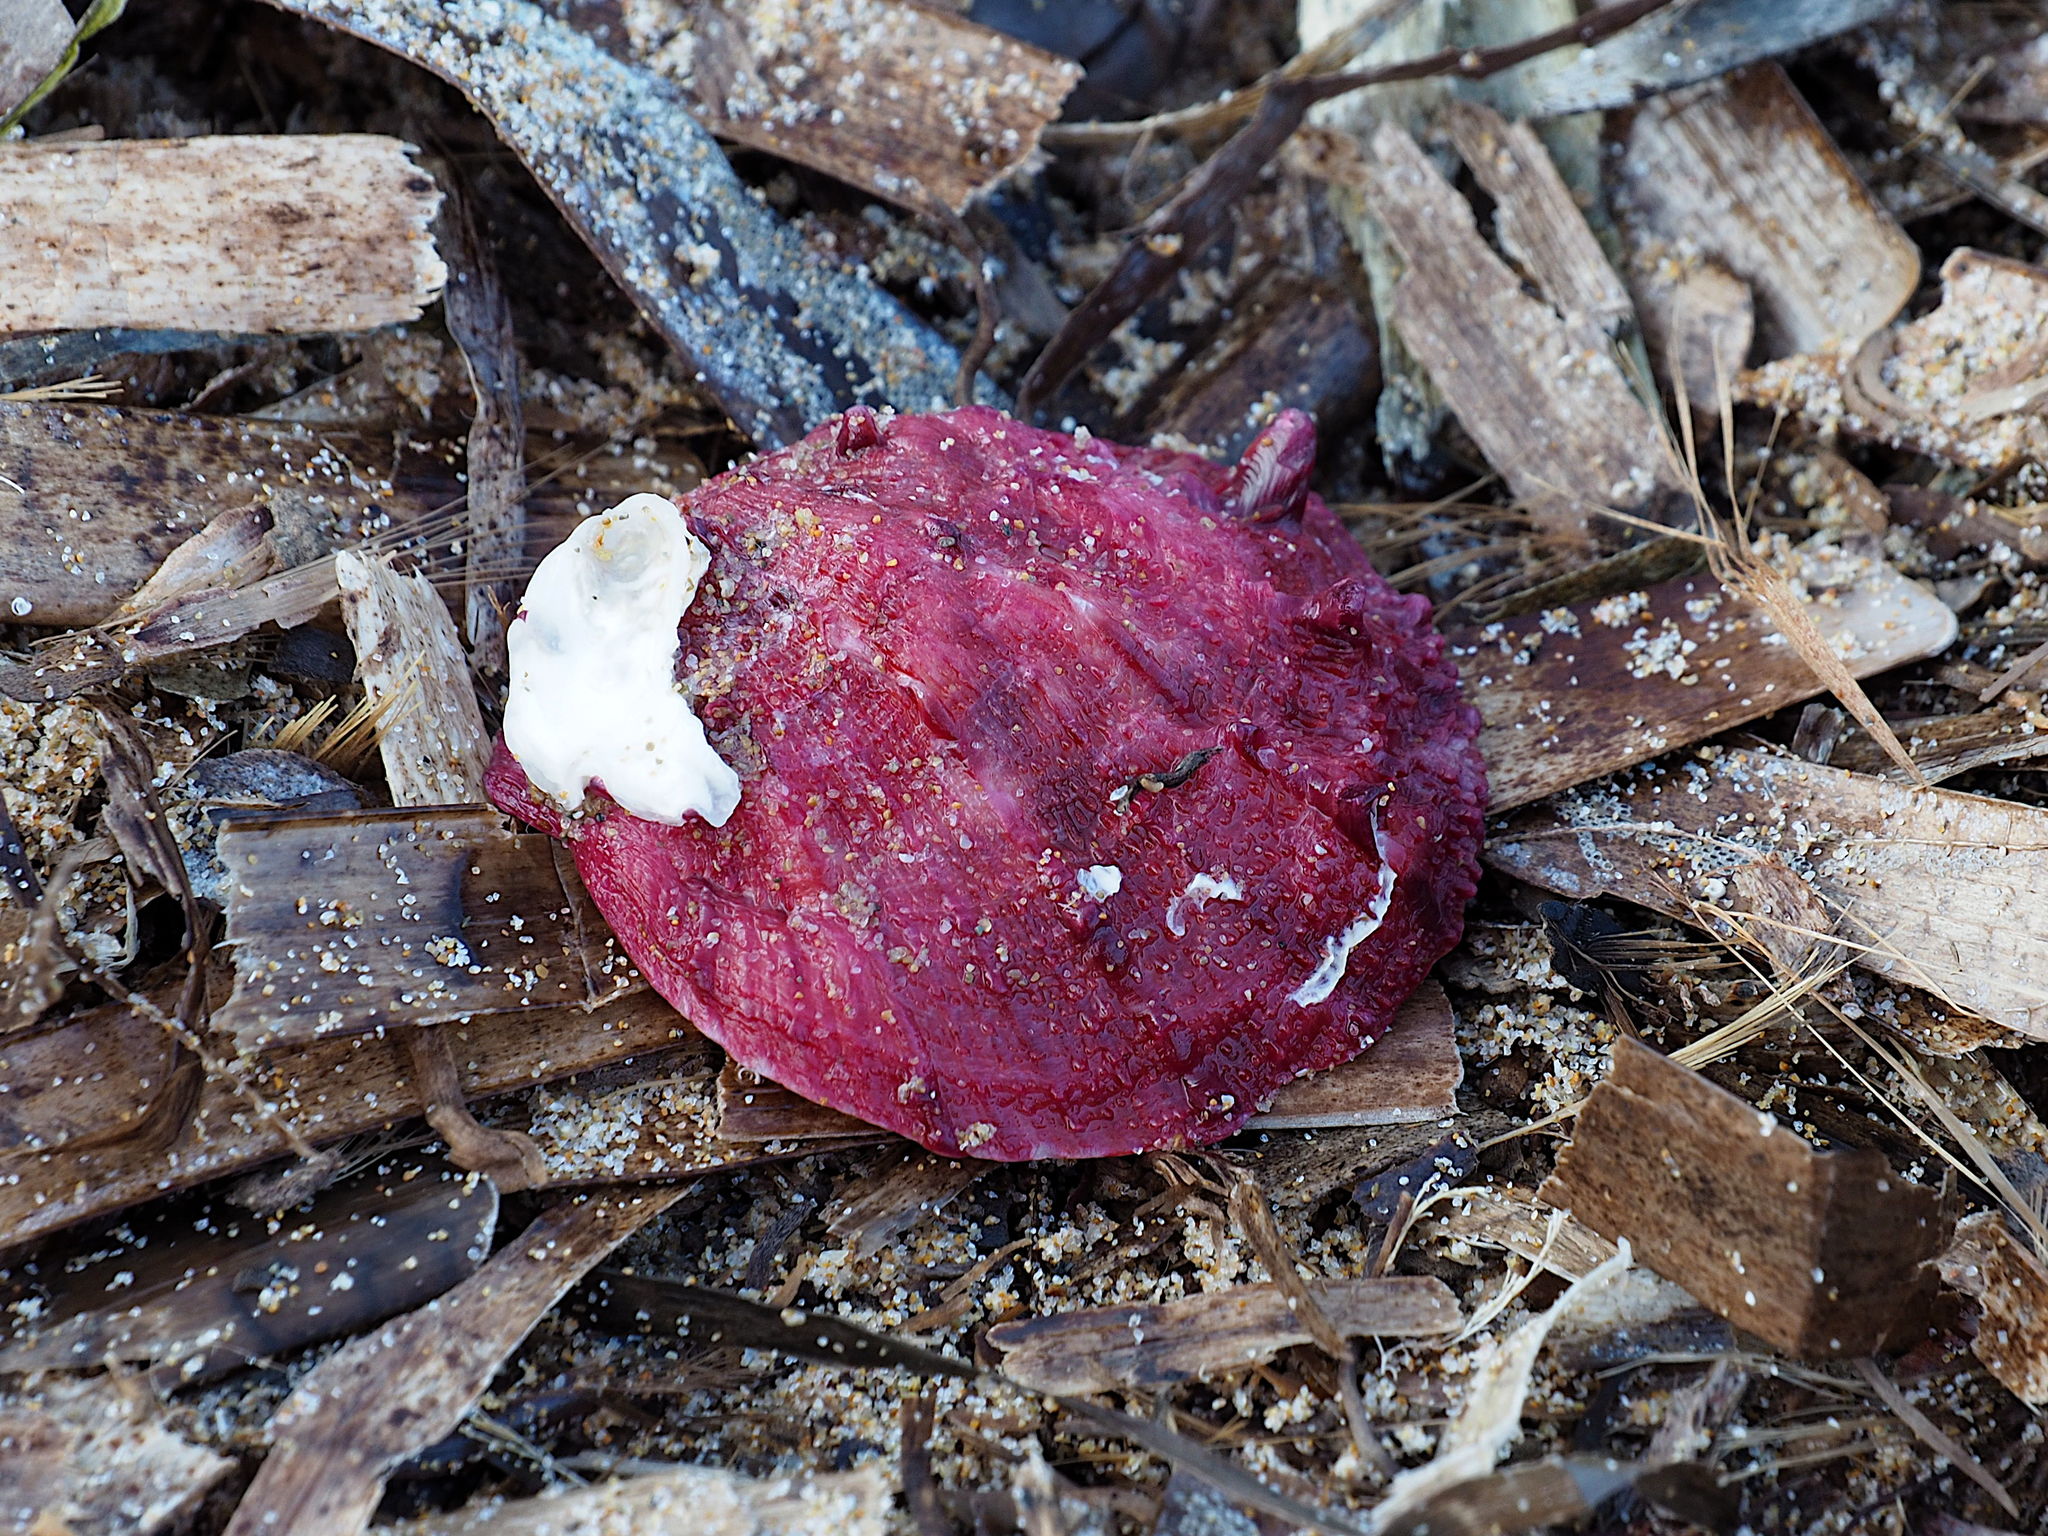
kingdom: Animalia
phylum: Mollusca
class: Bivalvia
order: Pectinida
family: Spondylidae
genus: Spondylus
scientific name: Spondylus gaederopus
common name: European thorny oyster
